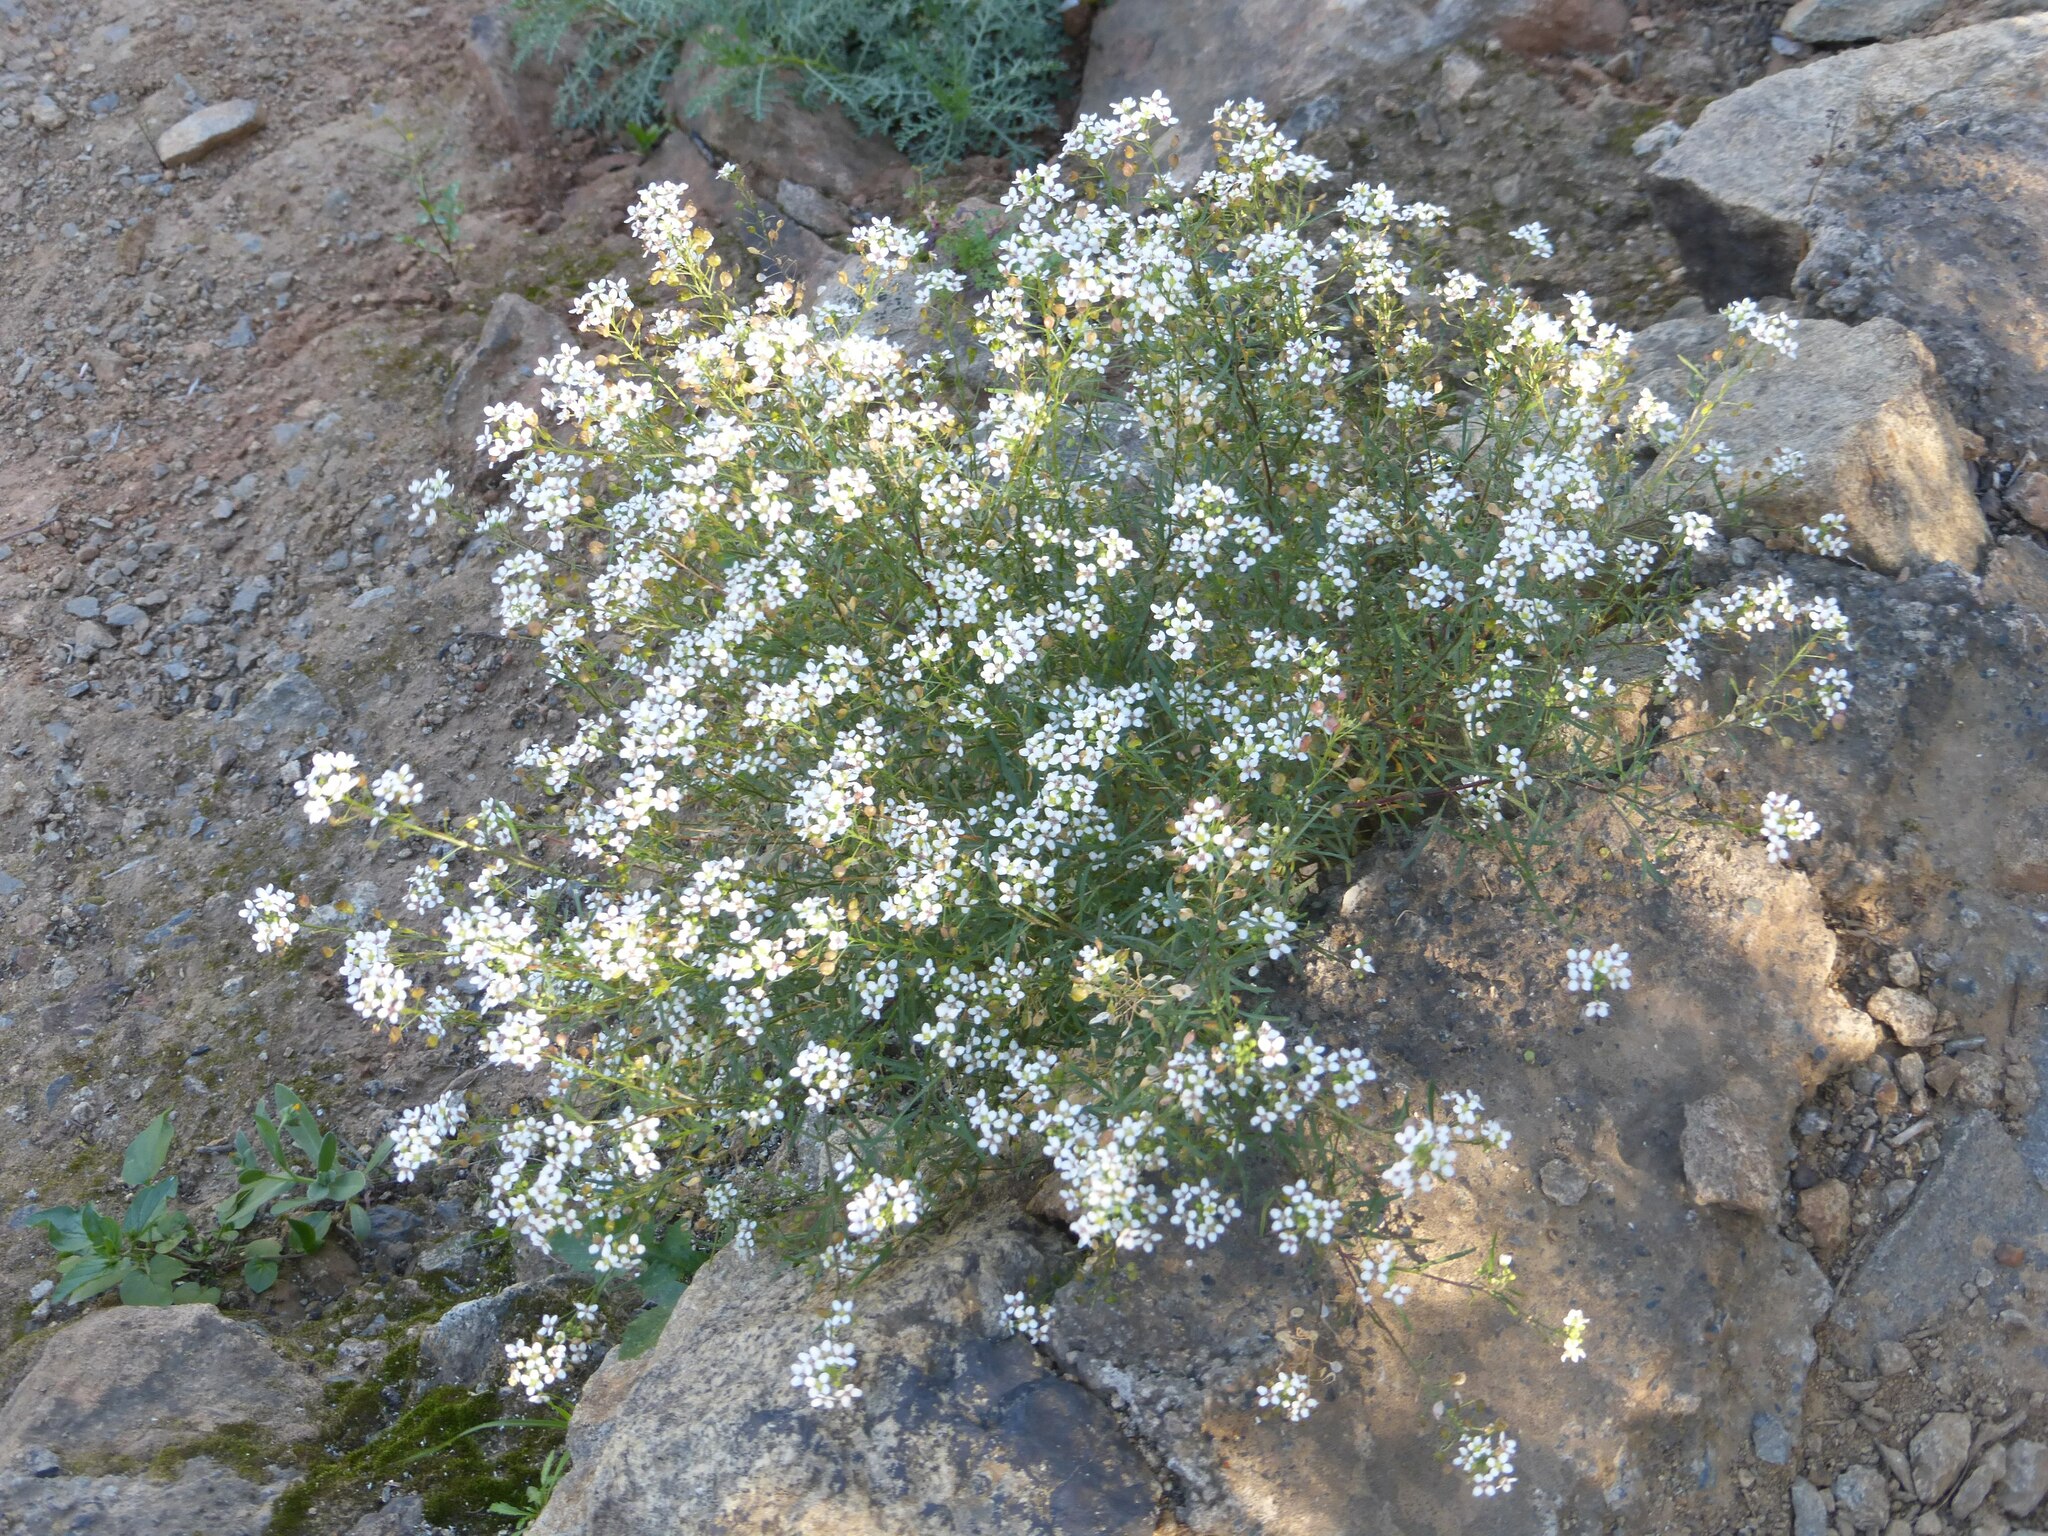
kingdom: Plantae
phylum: Tracheophyta
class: Magnoliopsida
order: Brassicales
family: Brassicaceae
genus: Lobularia
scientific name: Lobularia canariensis
